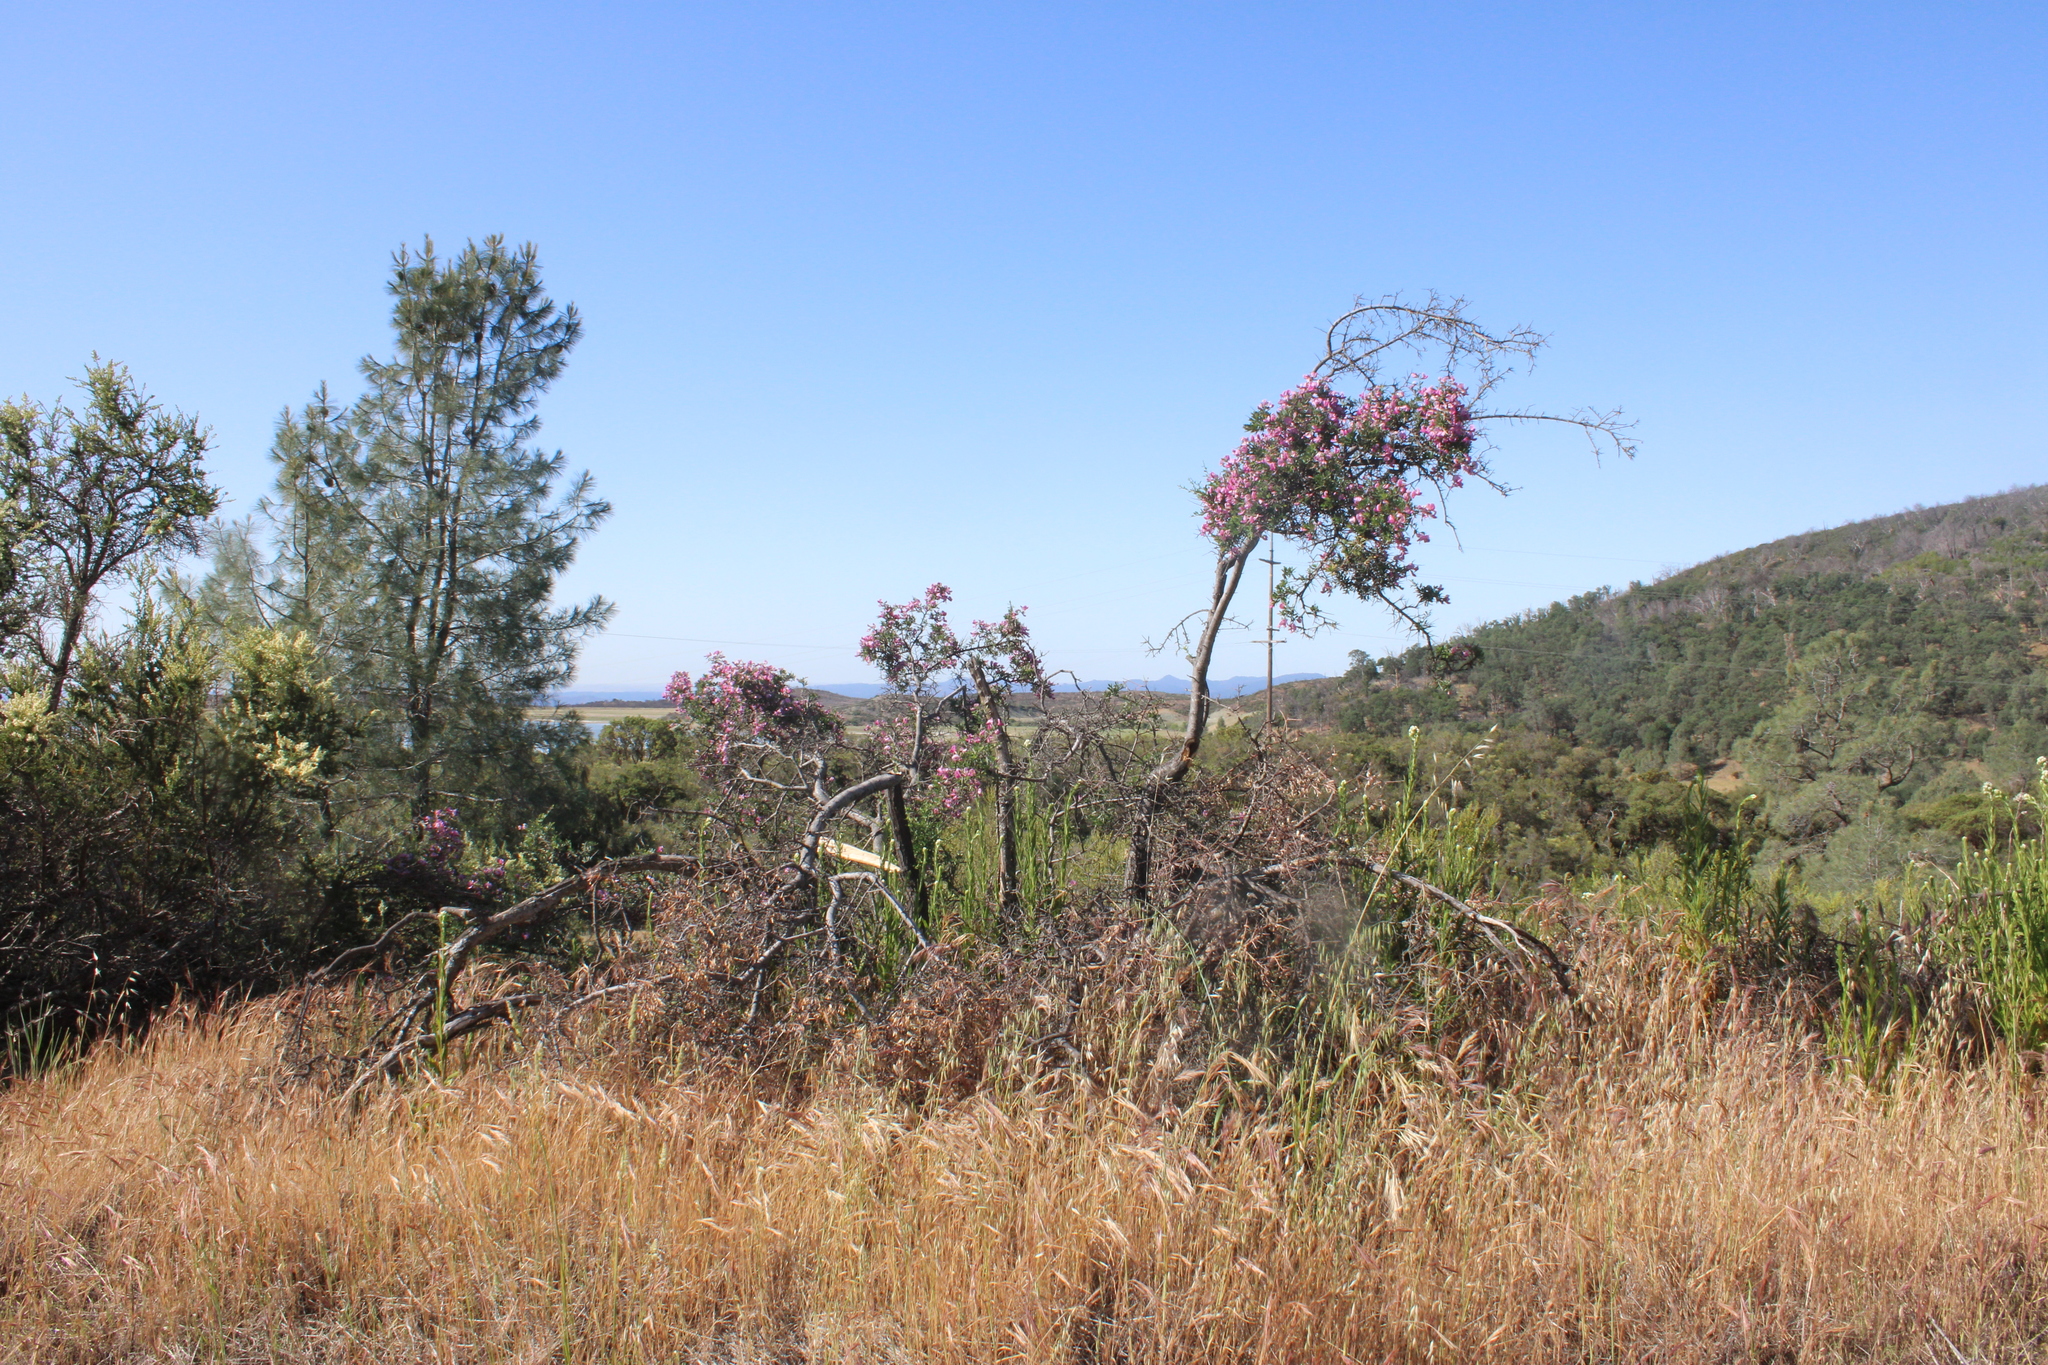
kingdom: Plantae
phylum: Tracheophyta
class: Magnoliopsida
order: Fabales
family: Fabaceae
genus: Pickeringia
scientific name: Pickeringia montana
